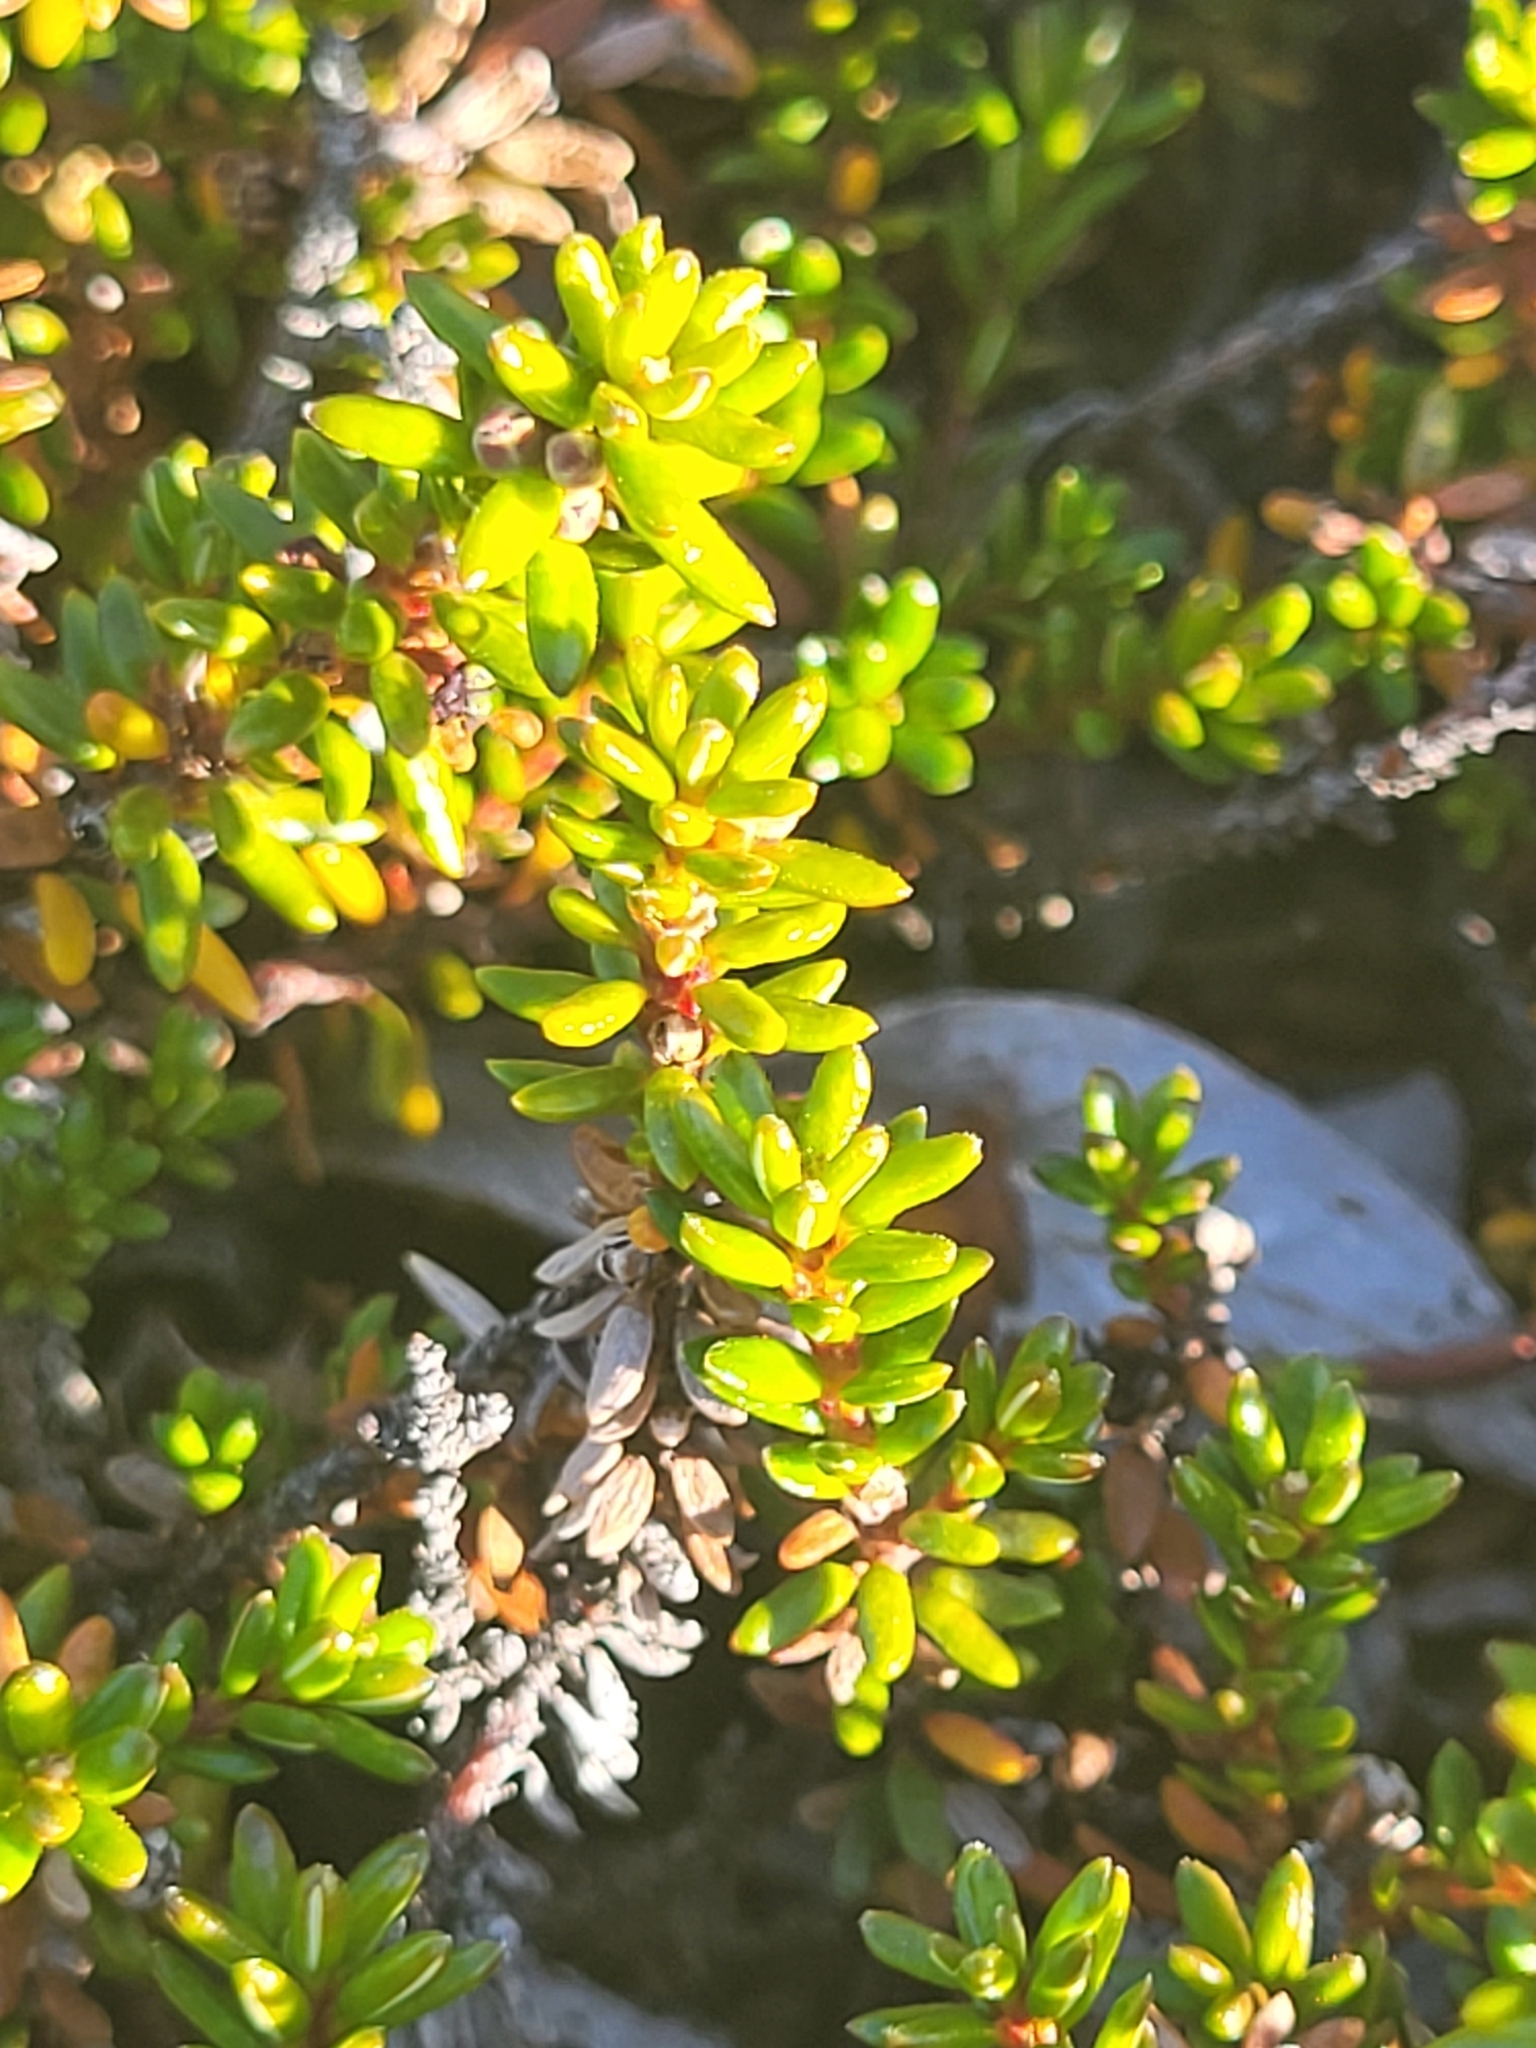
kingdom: Plantae
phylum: Tracheophyta
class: Magnoliopsida
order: Ericales
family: Ericaceae
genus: Empetrum
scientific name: Empetrum hermaphroditum
